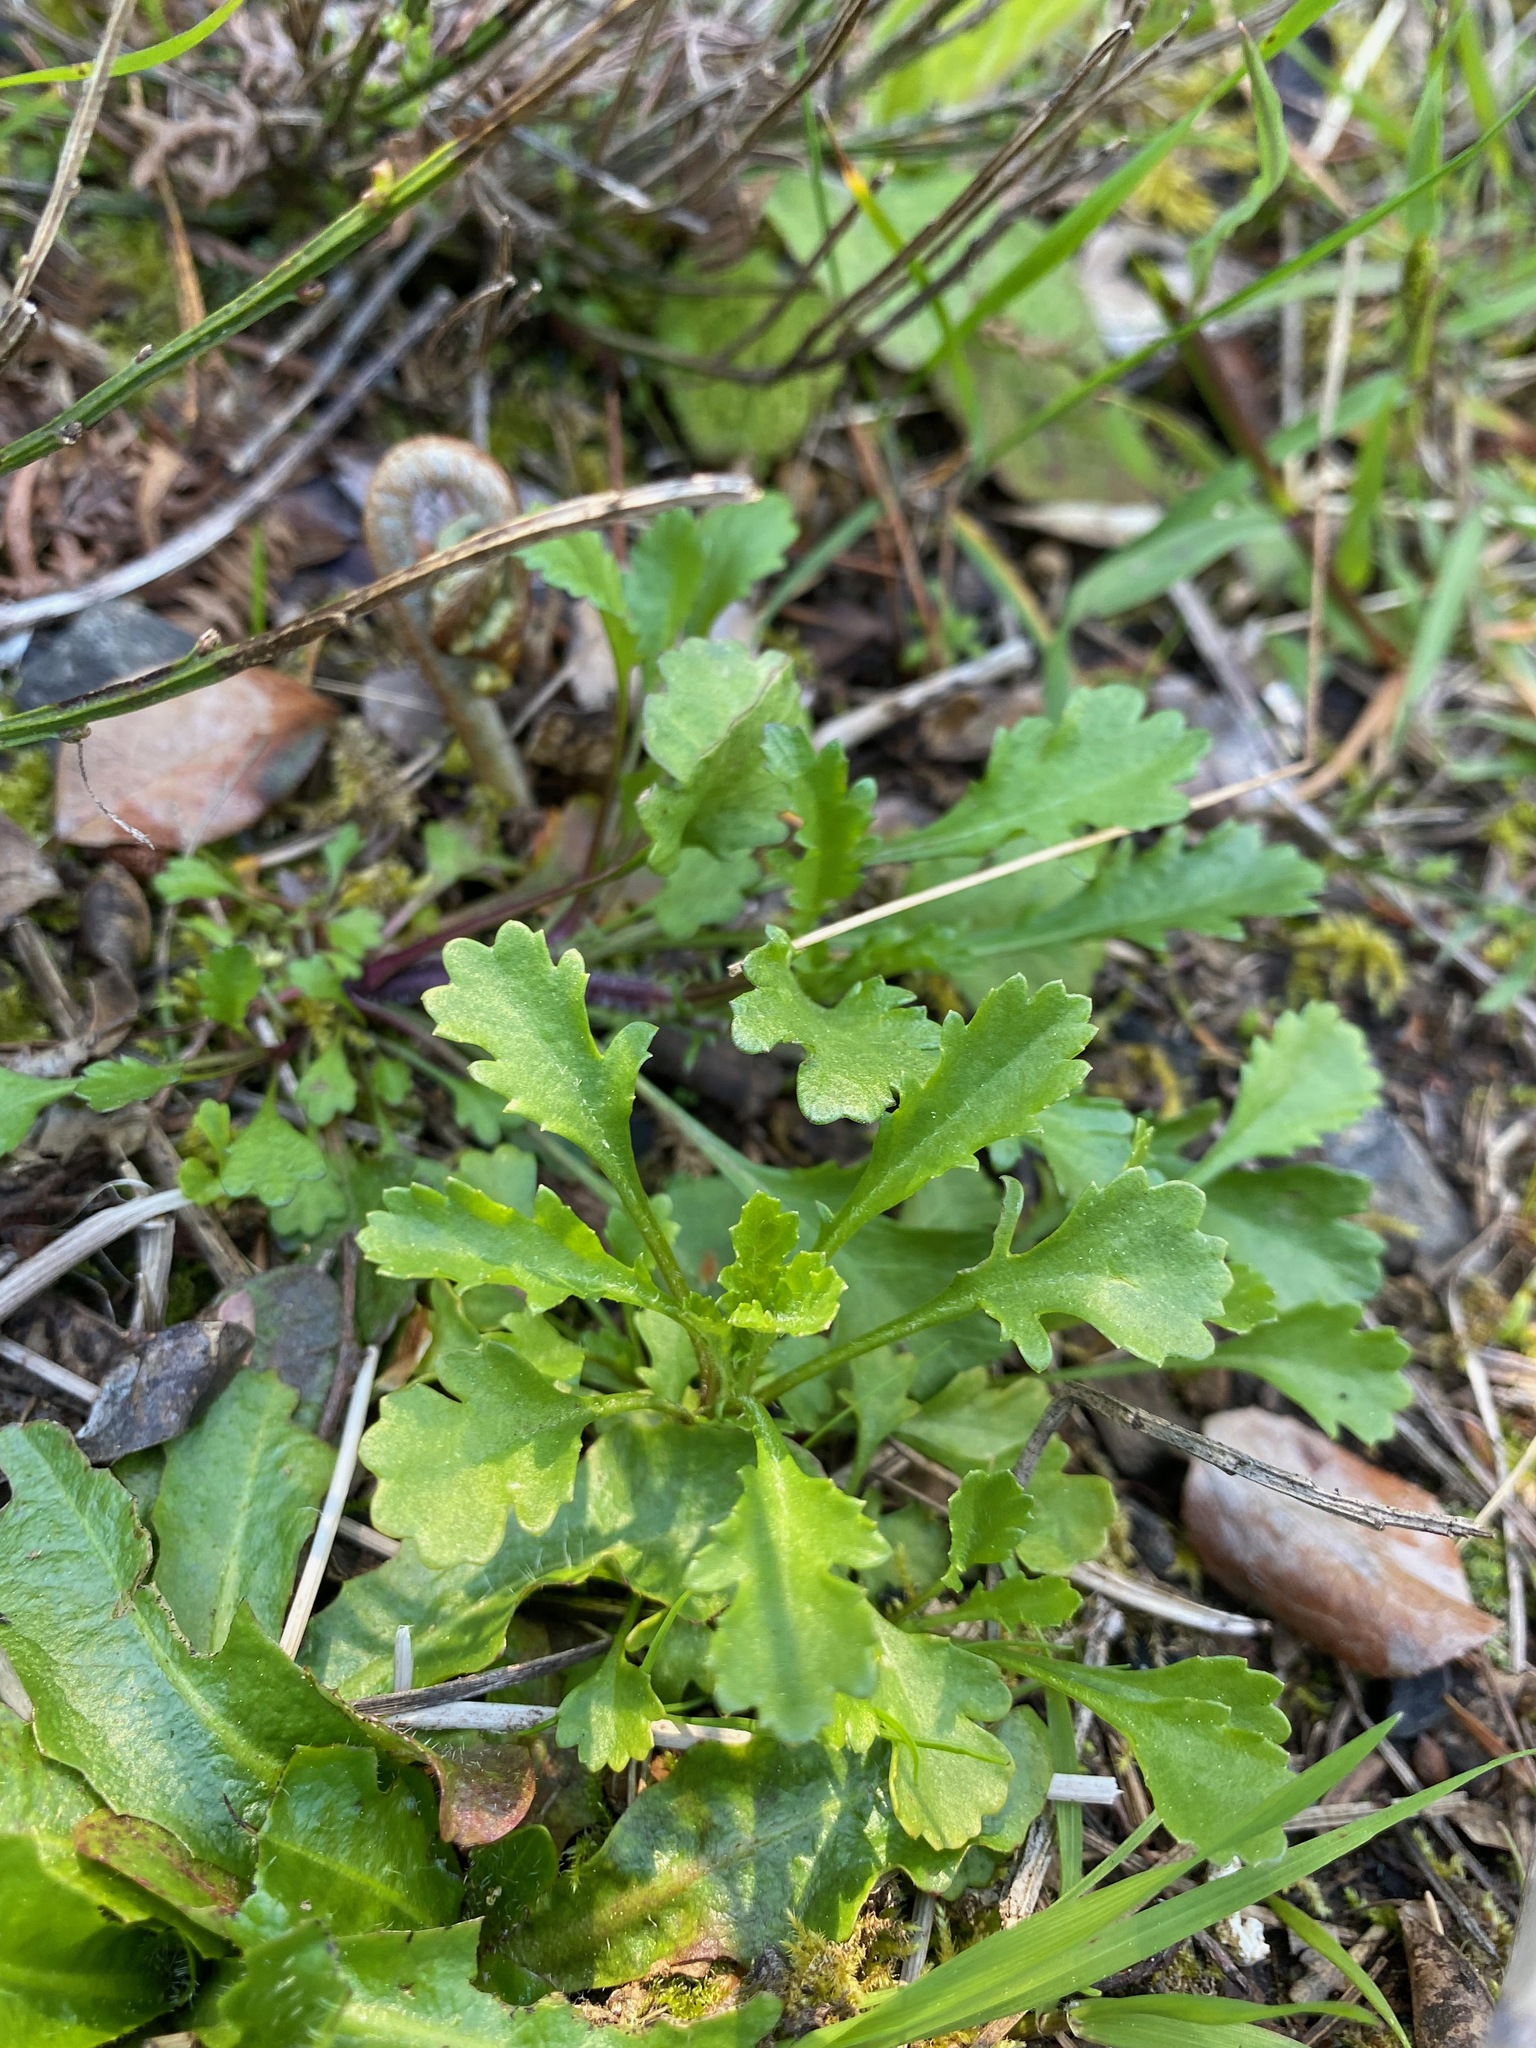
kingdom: Plantae
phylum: Tracheophyta
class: Magnoliopsida
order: Asterales
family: Asteraceae
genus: Leucanthemum
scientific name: Leucanthemum vulgare
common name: Oxeye daisy
